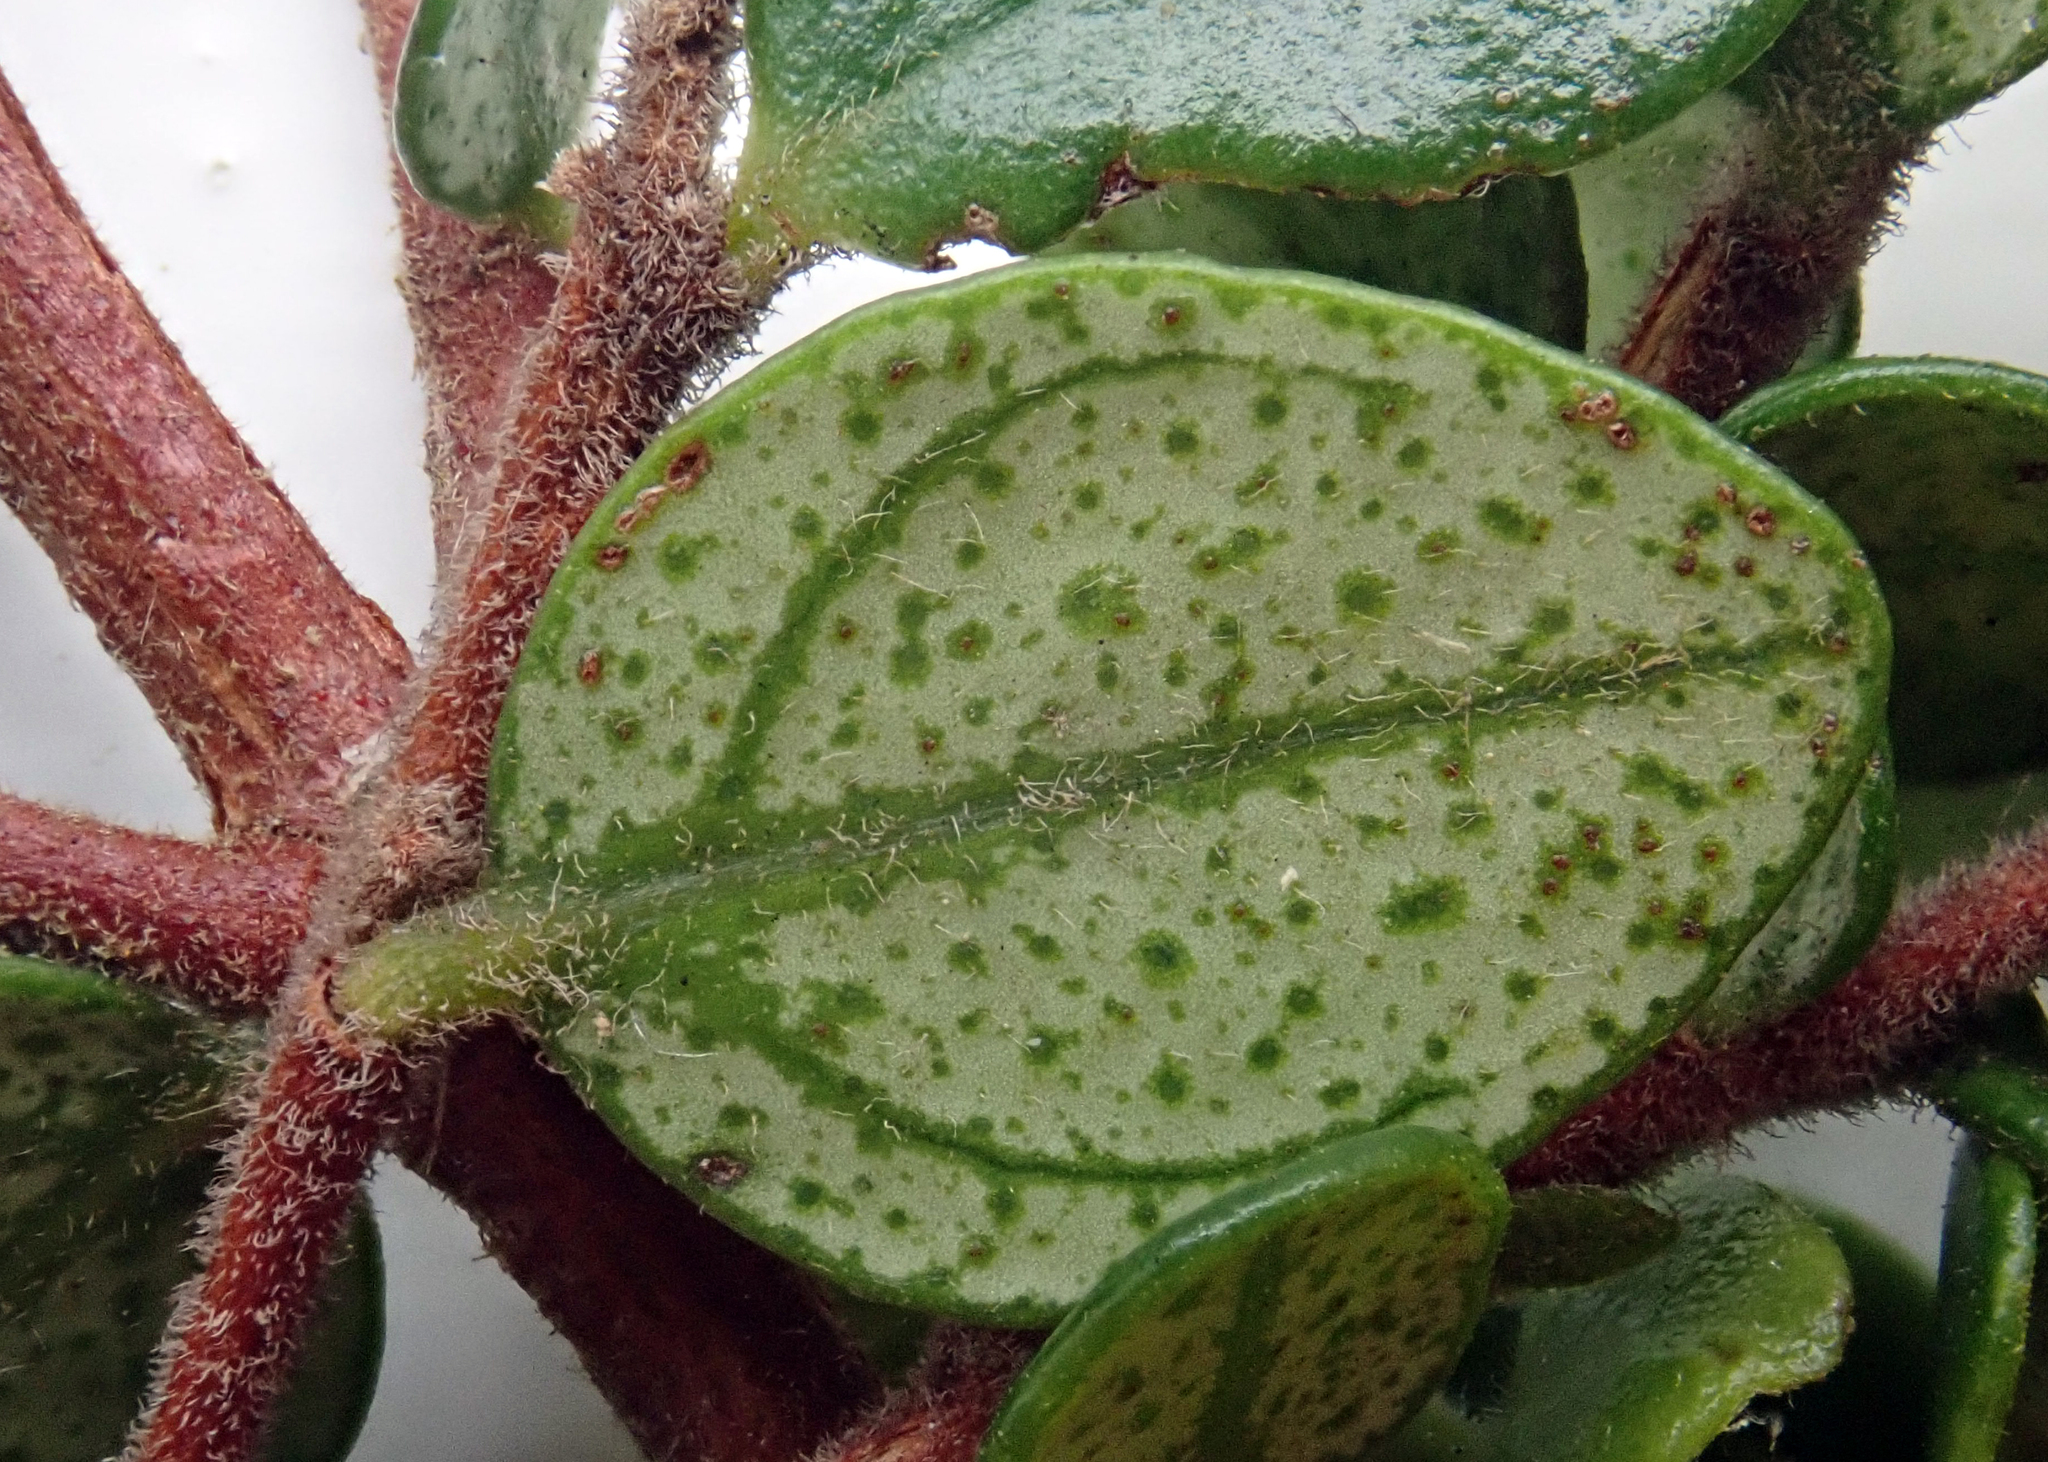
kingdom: Plantae
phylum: Tracheophyta
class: Magnoliopsida
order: Myrtales
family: Myrtaceae
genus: Metrosideros
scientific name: Metrosideros perforata
